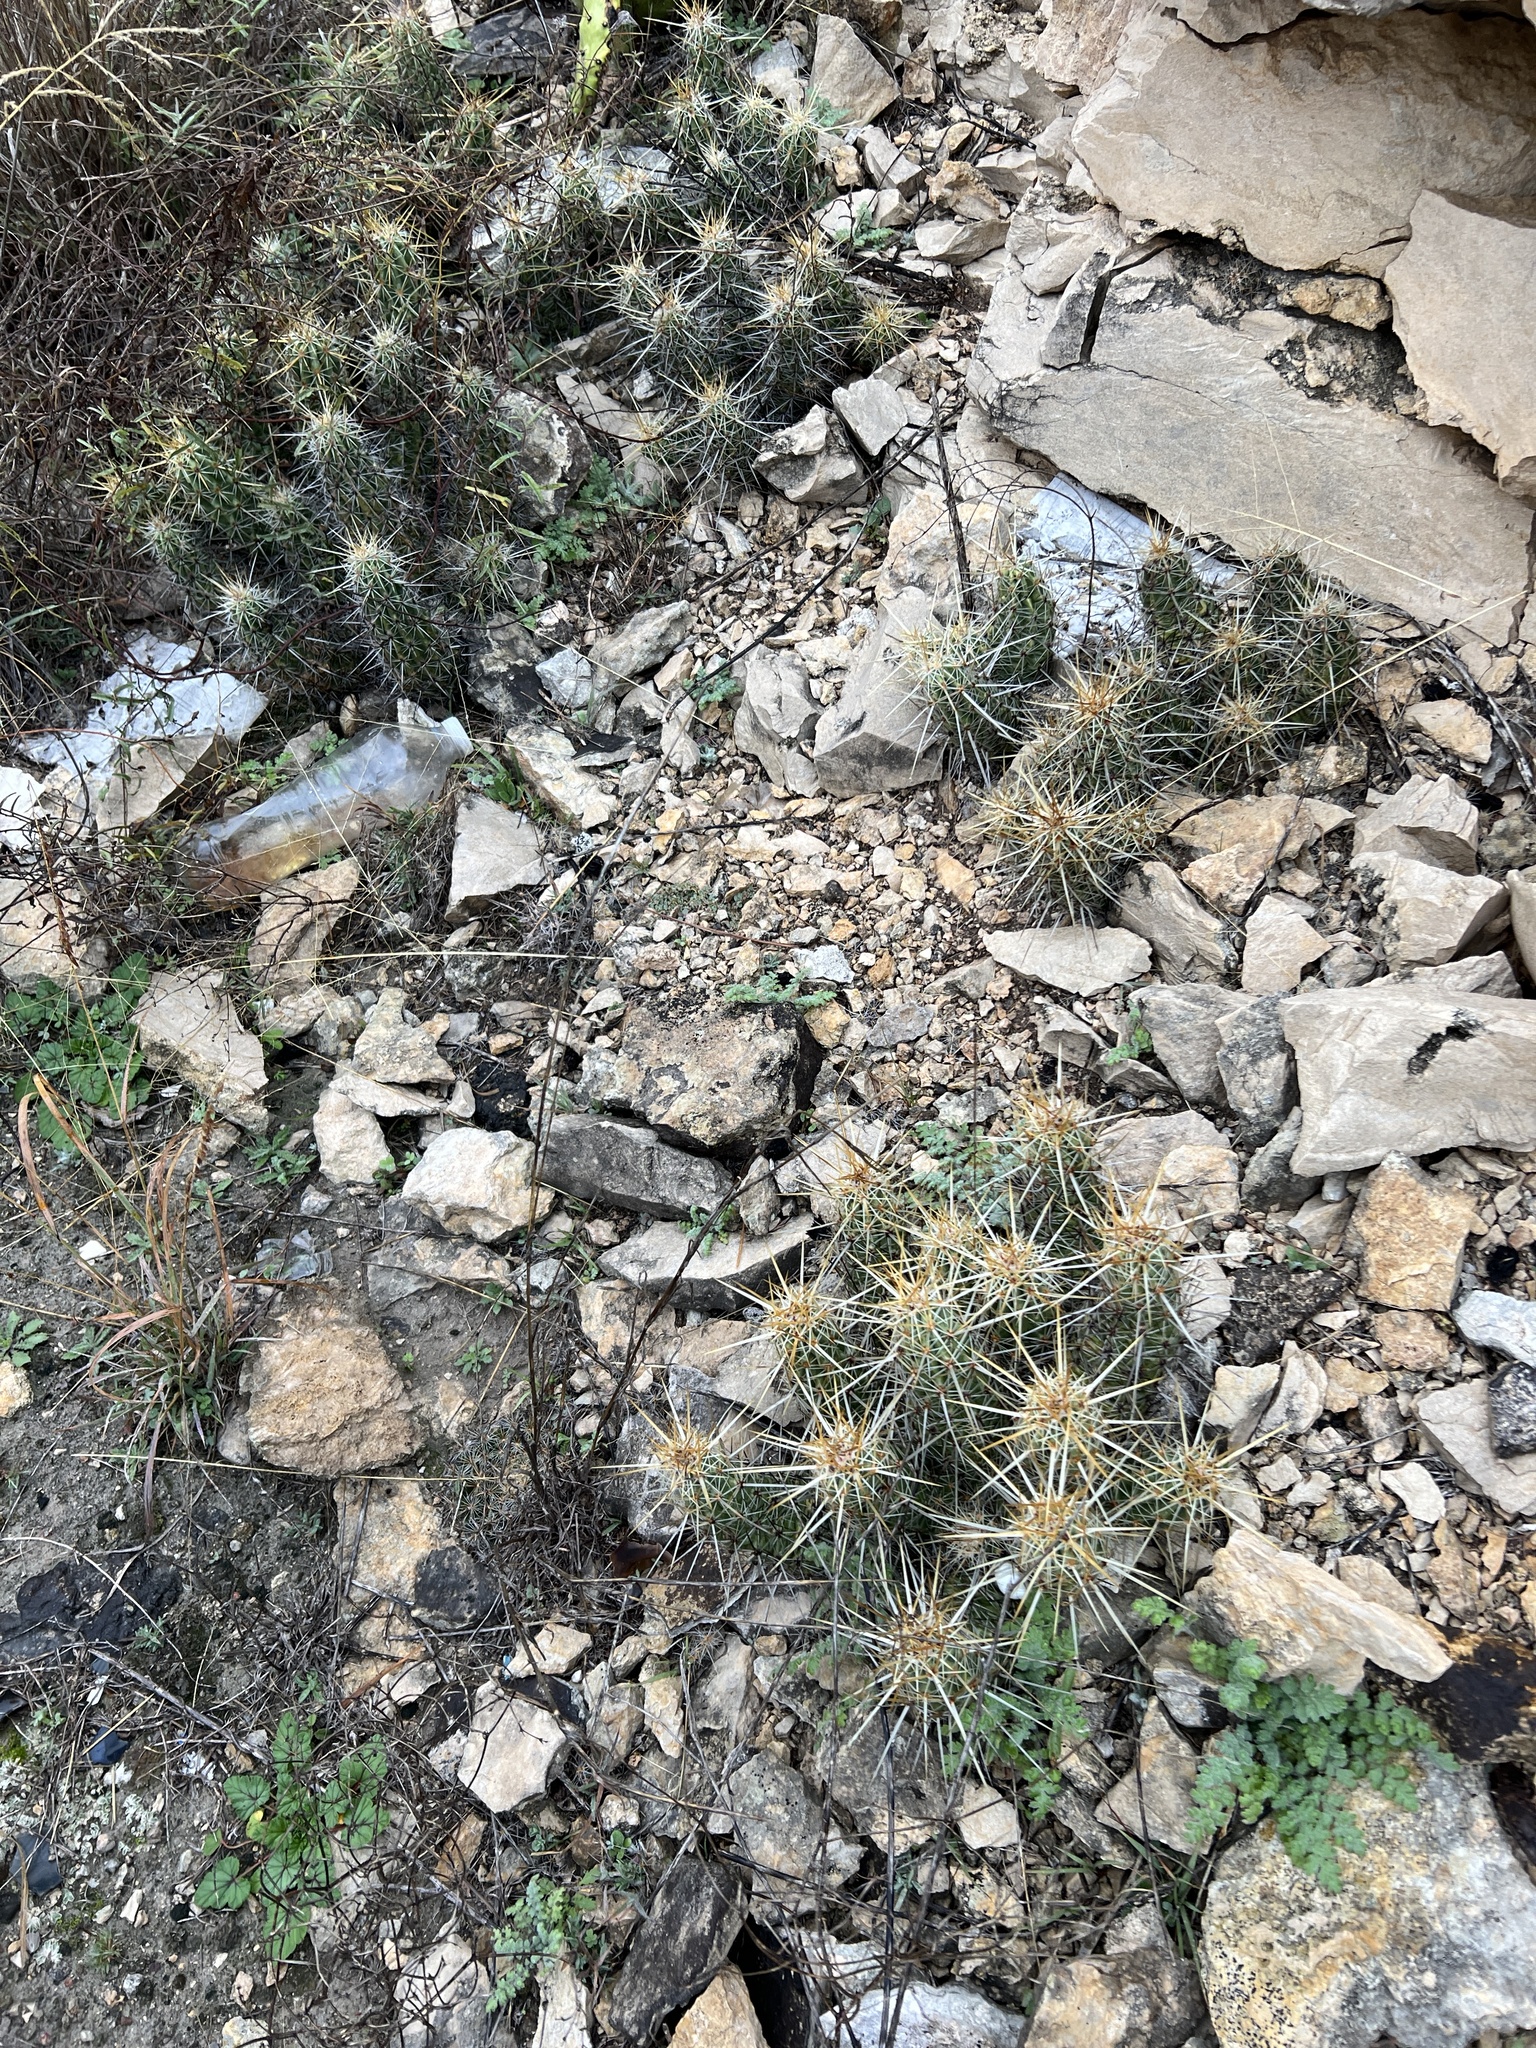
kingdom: Plantae
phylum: Tracheophyta
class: Magnoliopsida
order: Caryophyllales
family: Cactaceae
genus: Echinocereus
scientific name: Echinocereus enneacanthus
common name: Pitaya
